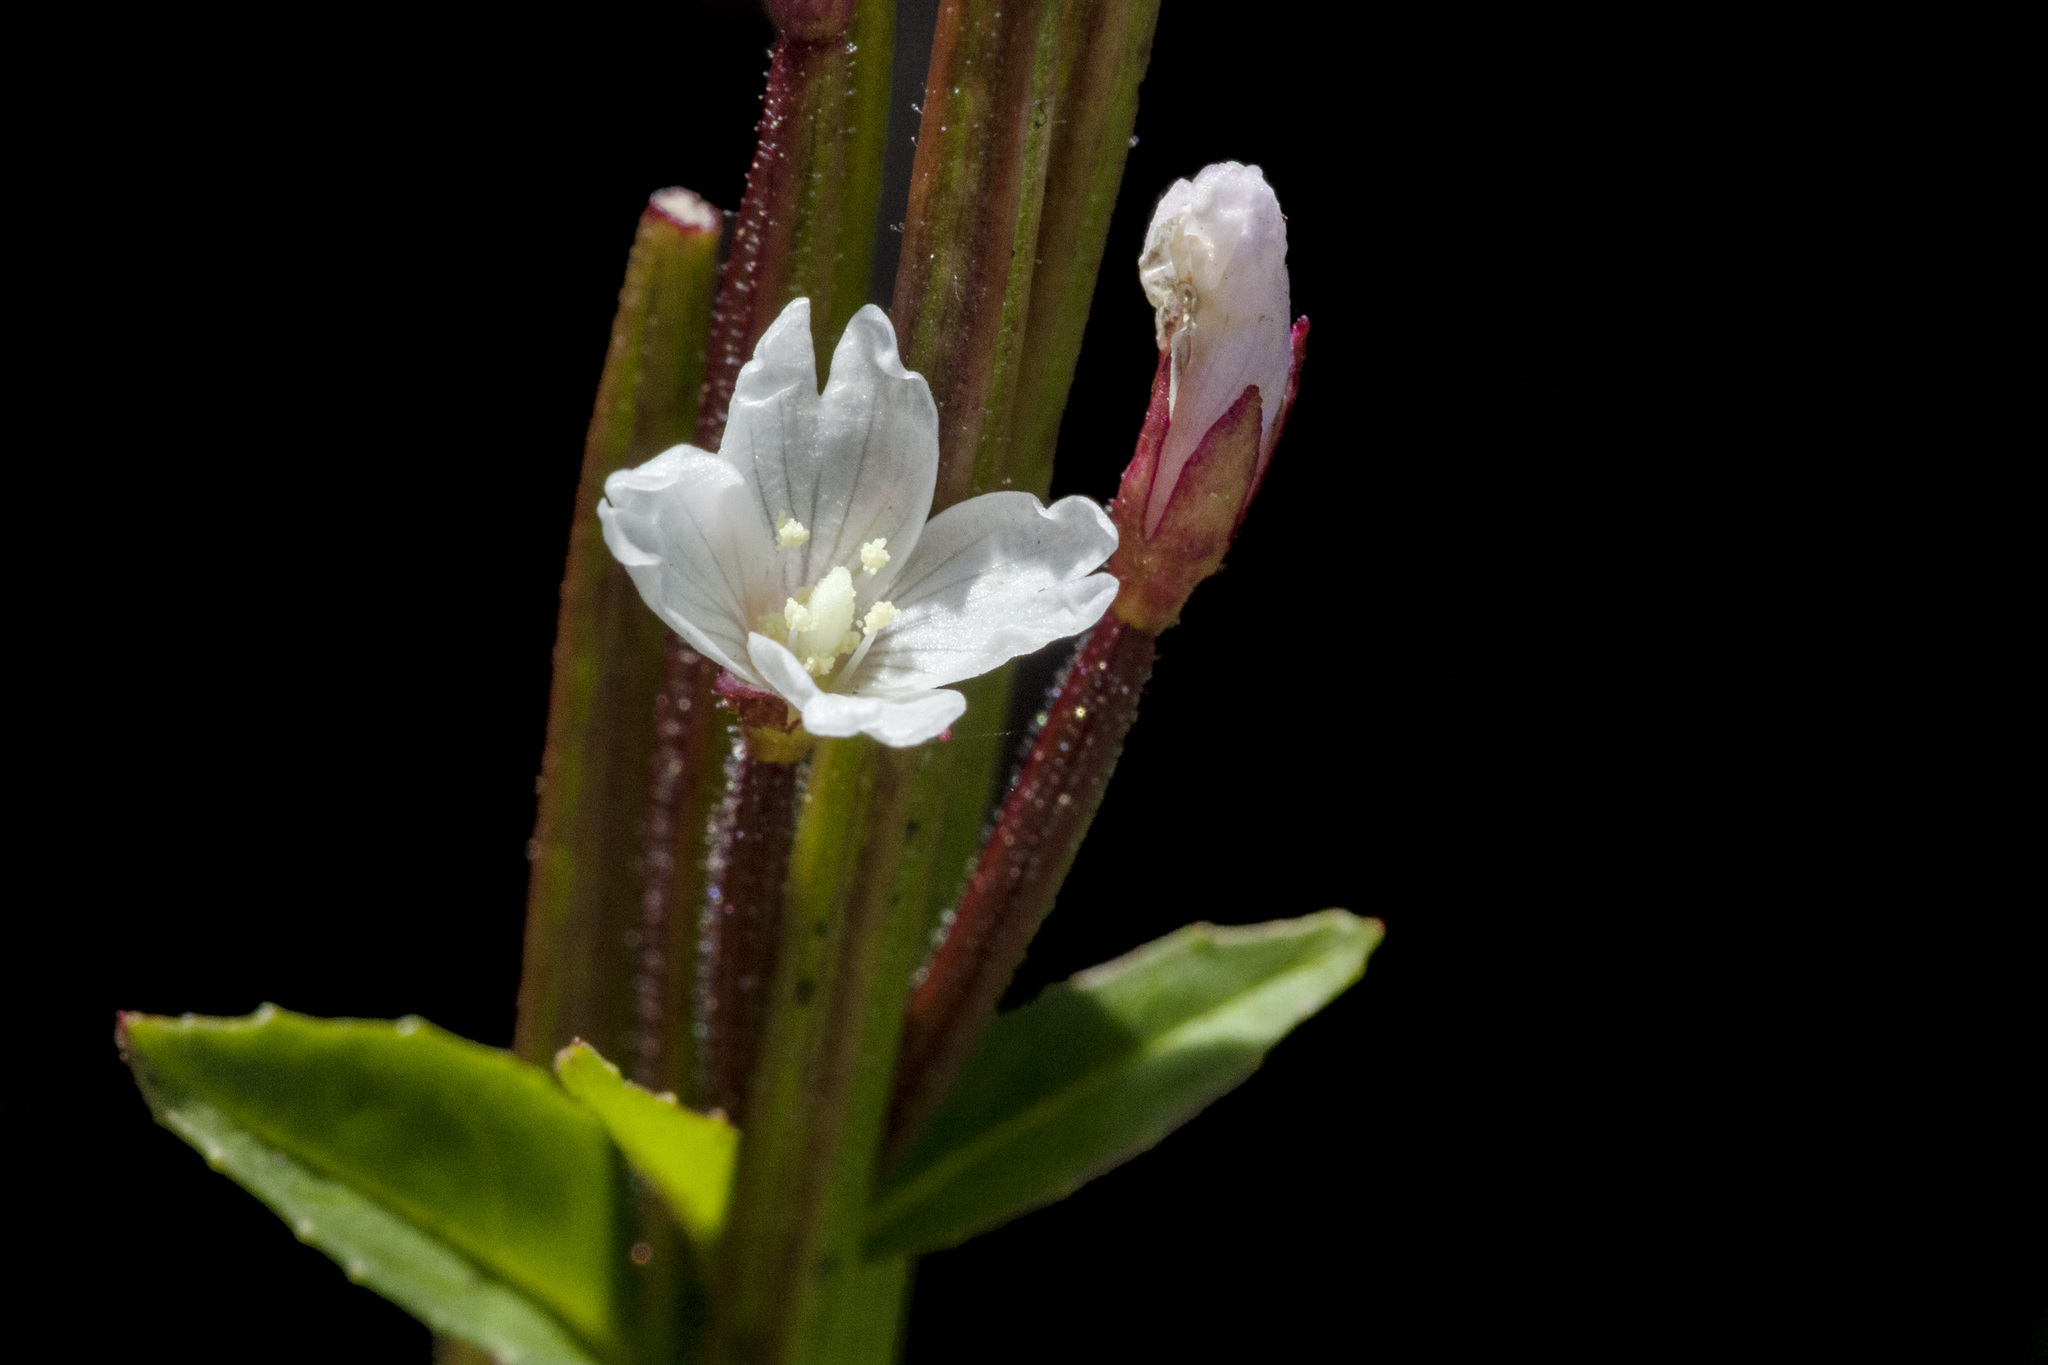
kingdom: Plantae
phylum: Tracheophyta
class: Magnoliopsida
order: Myrtales
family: Onagraceae
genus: Epilobium
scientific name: Epilobium saximontanum
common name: Rocky mountain willowherb
